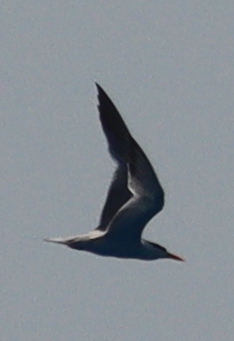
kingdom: Animalia
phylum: Chordata
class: Aves
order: Charadriiformes
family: Laridae
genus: Thalasseus
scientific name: Thalasseus bengalensis
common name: Lesser crested tern
